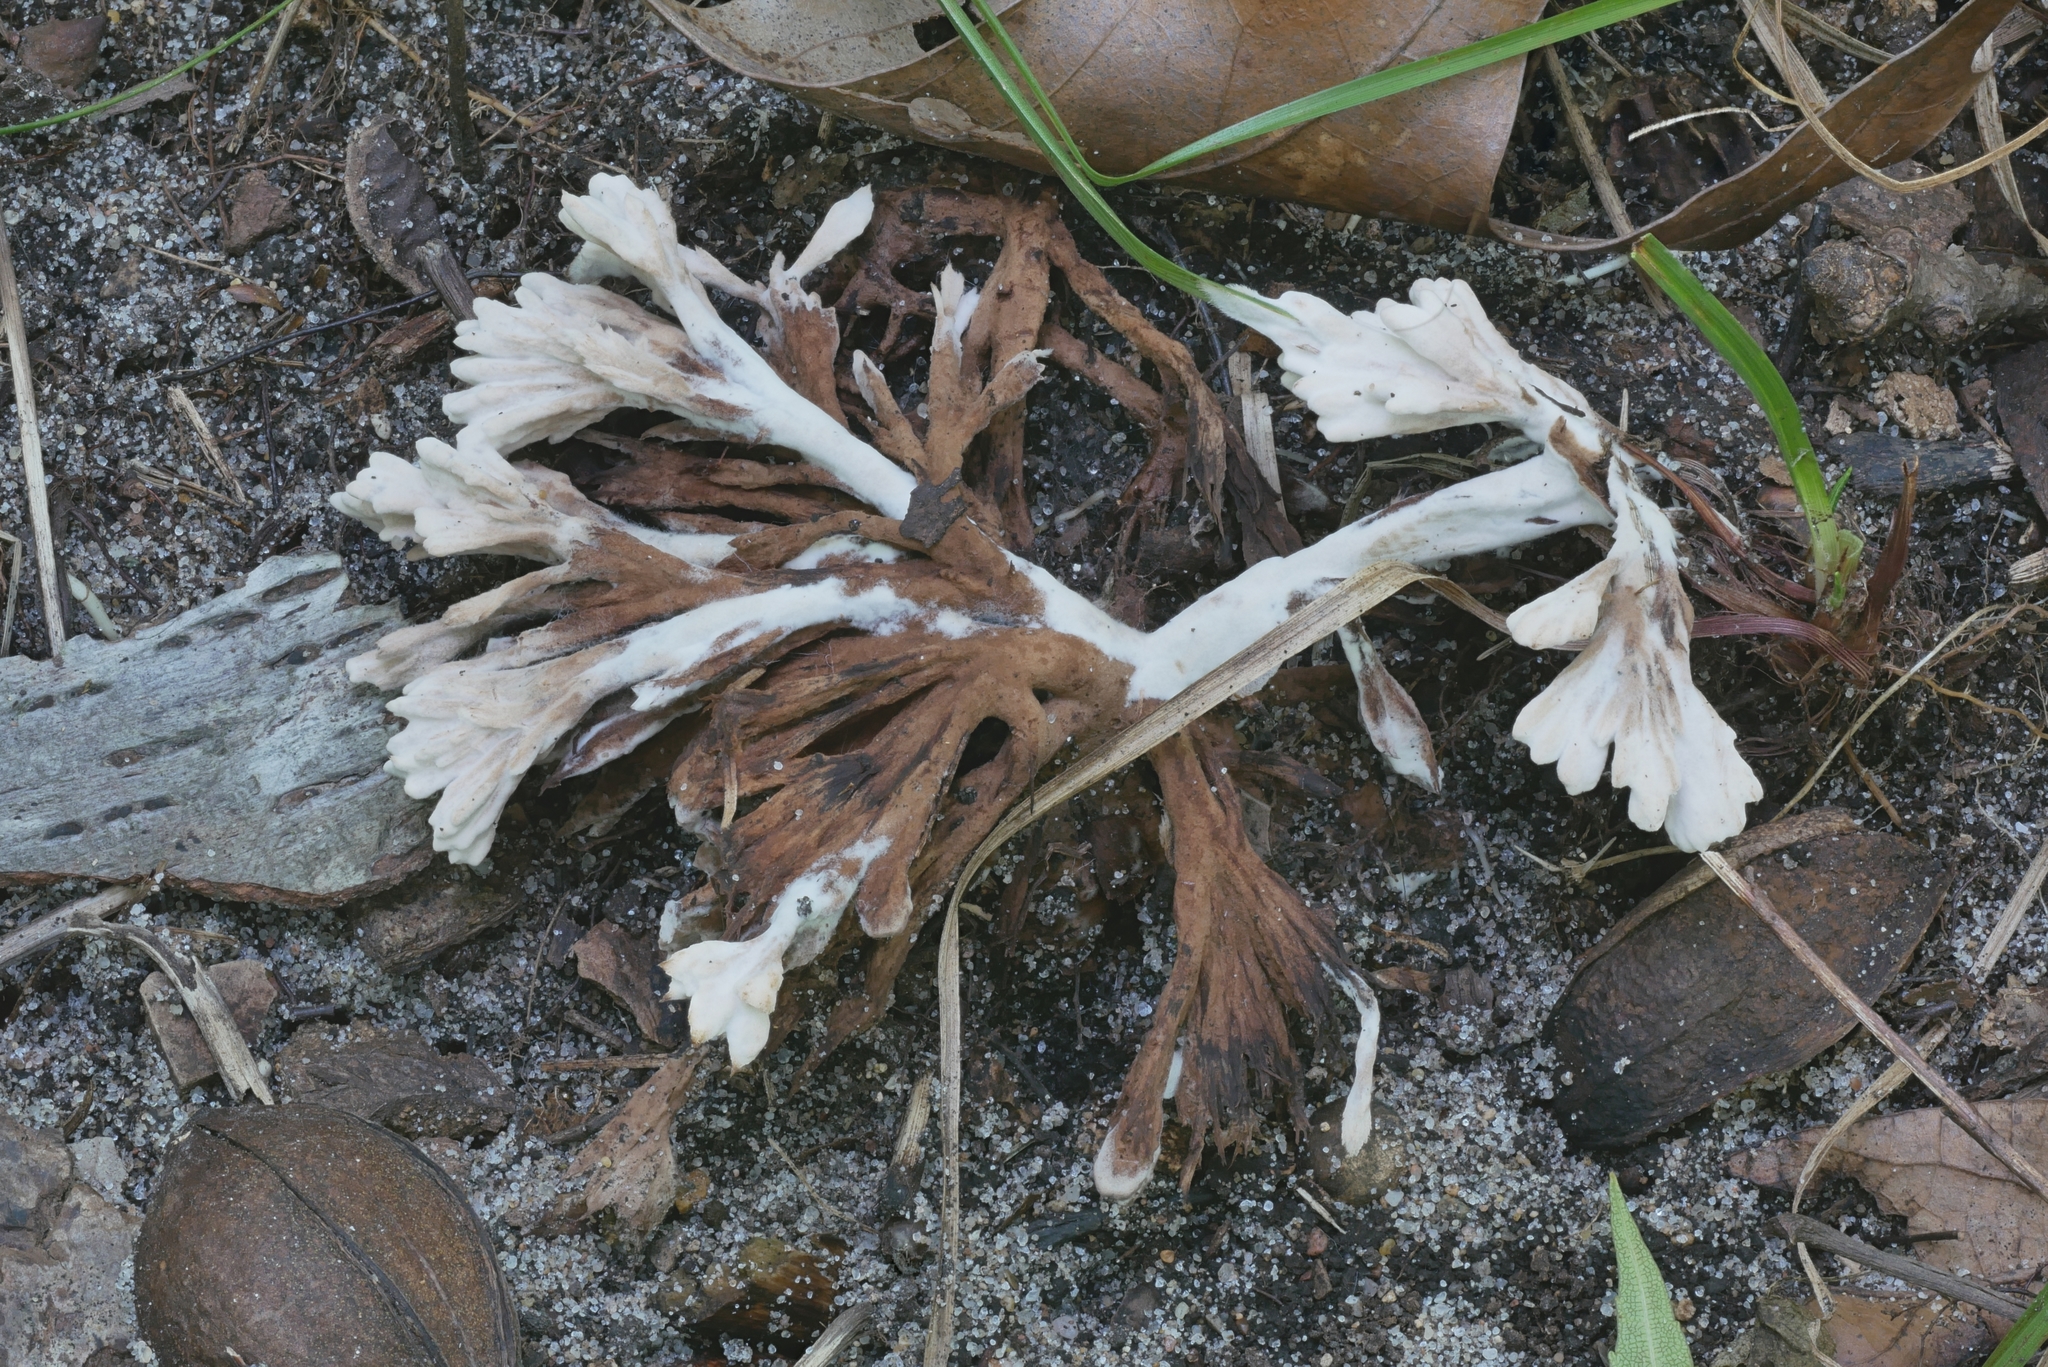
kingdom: Fungi
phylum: Basidiomycota
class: Agaricomycetes
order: Thelephorales
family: Thelephoraceae
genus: Thelephora
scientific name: Thelephora penicillata
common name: Urchin earthfan
